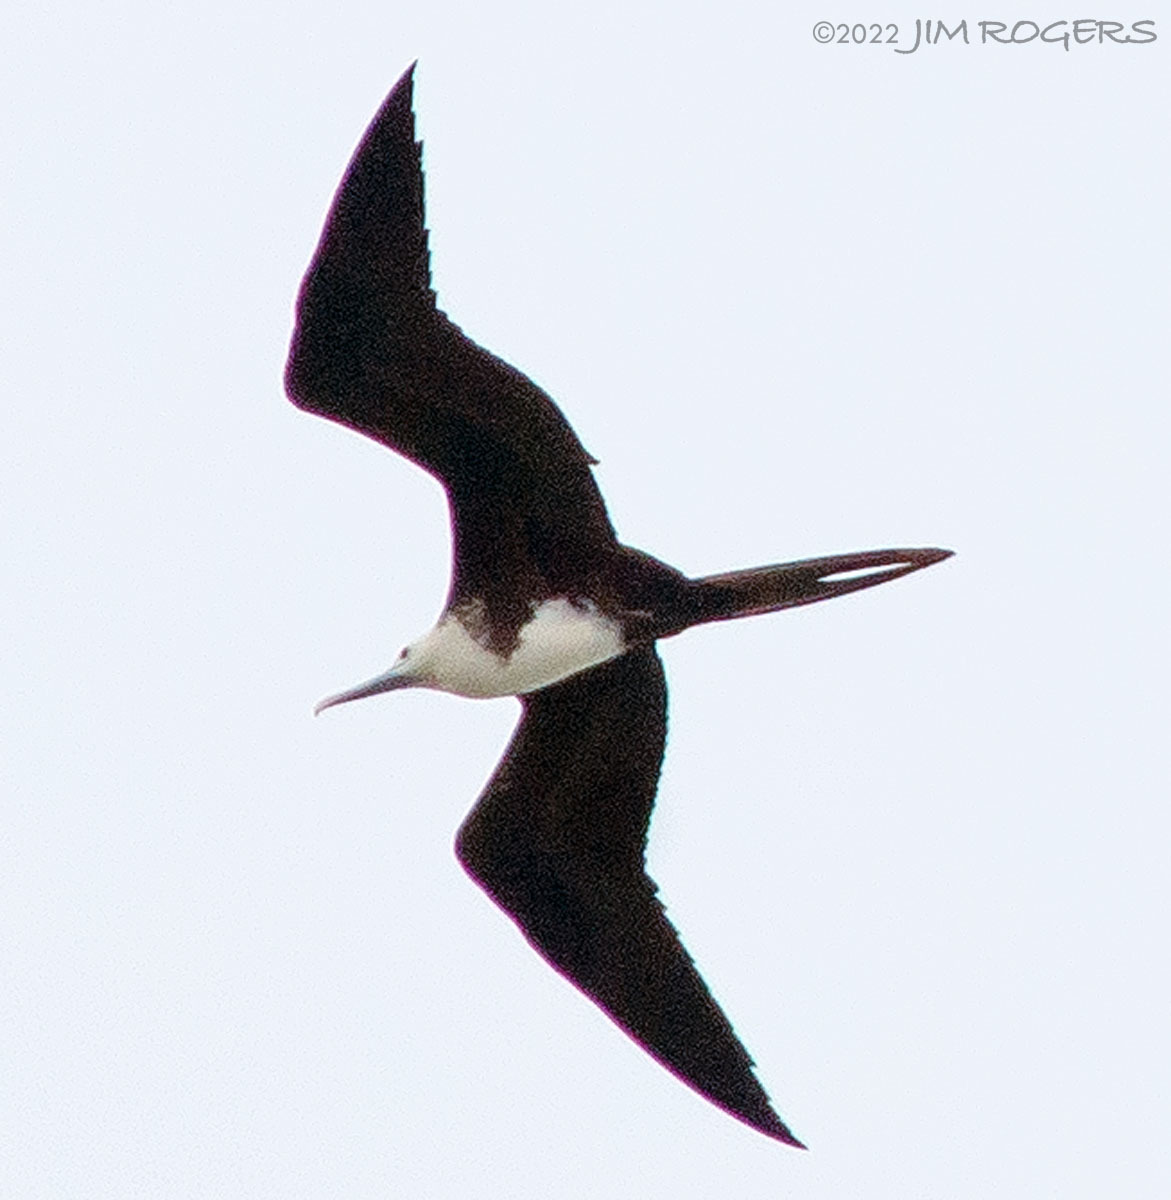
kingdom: Animalia
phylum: Chordata
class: Aves
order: Suliformes
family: Fregatidae
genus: Fregata
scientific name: Fregata magnificens
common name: Magnificent frigatebird
